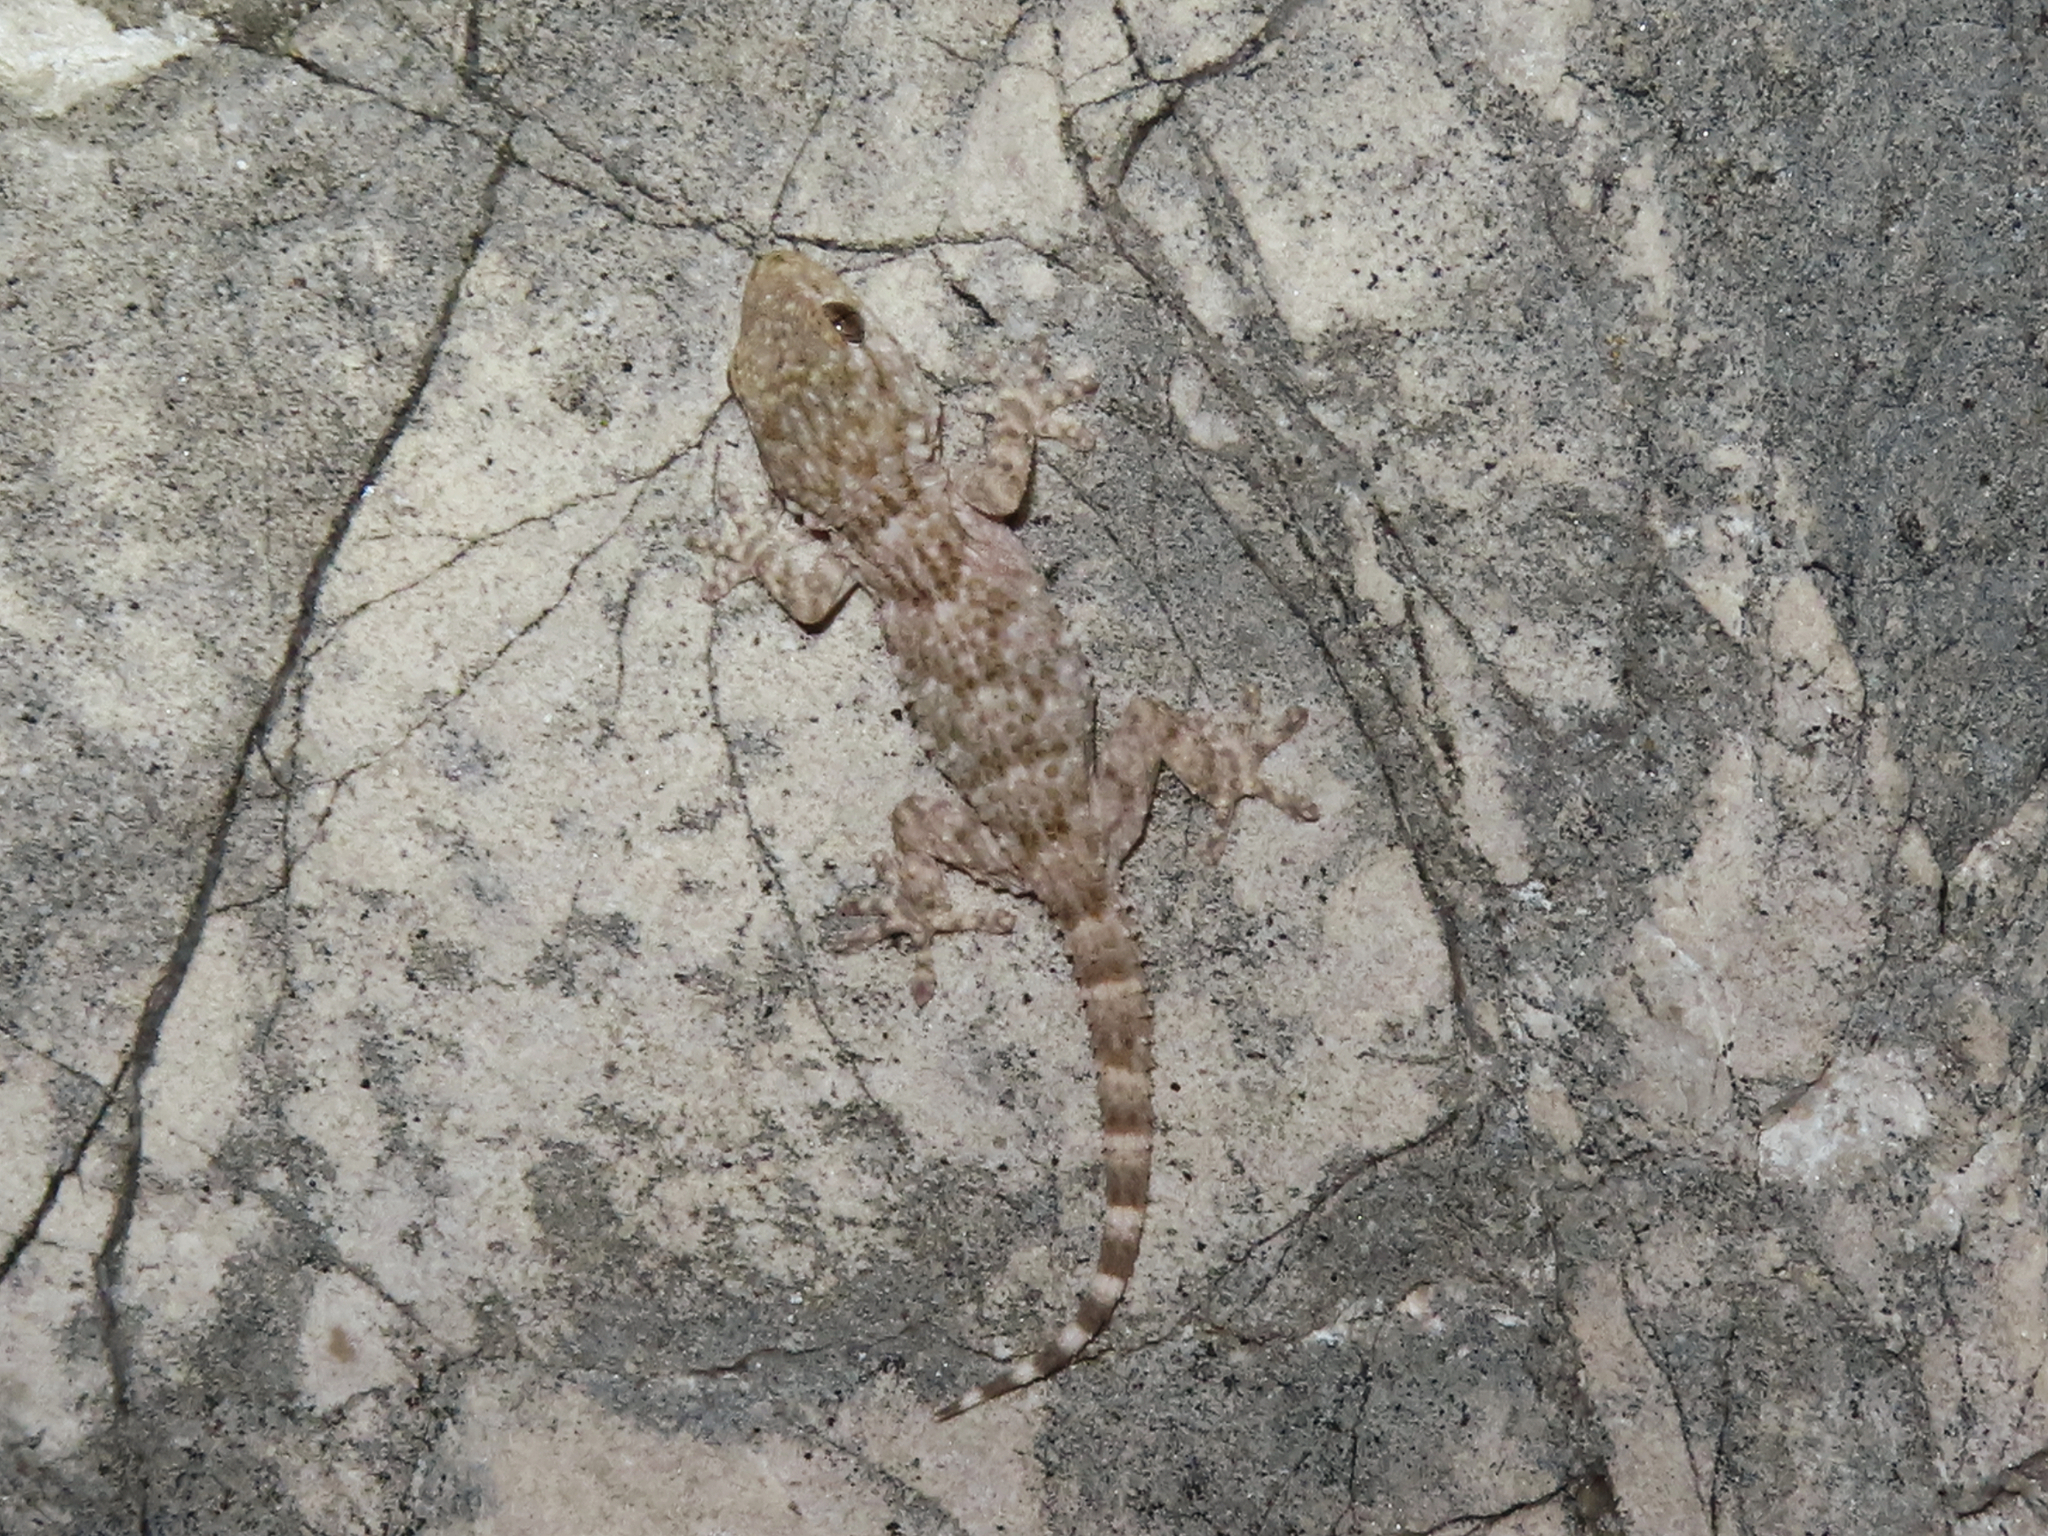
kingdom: Animalia
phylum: Chordata
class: Squamata
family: Phyllodactylidae
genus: Tarentola
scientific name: Tarentola mauritanica
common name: Moorish gecko
